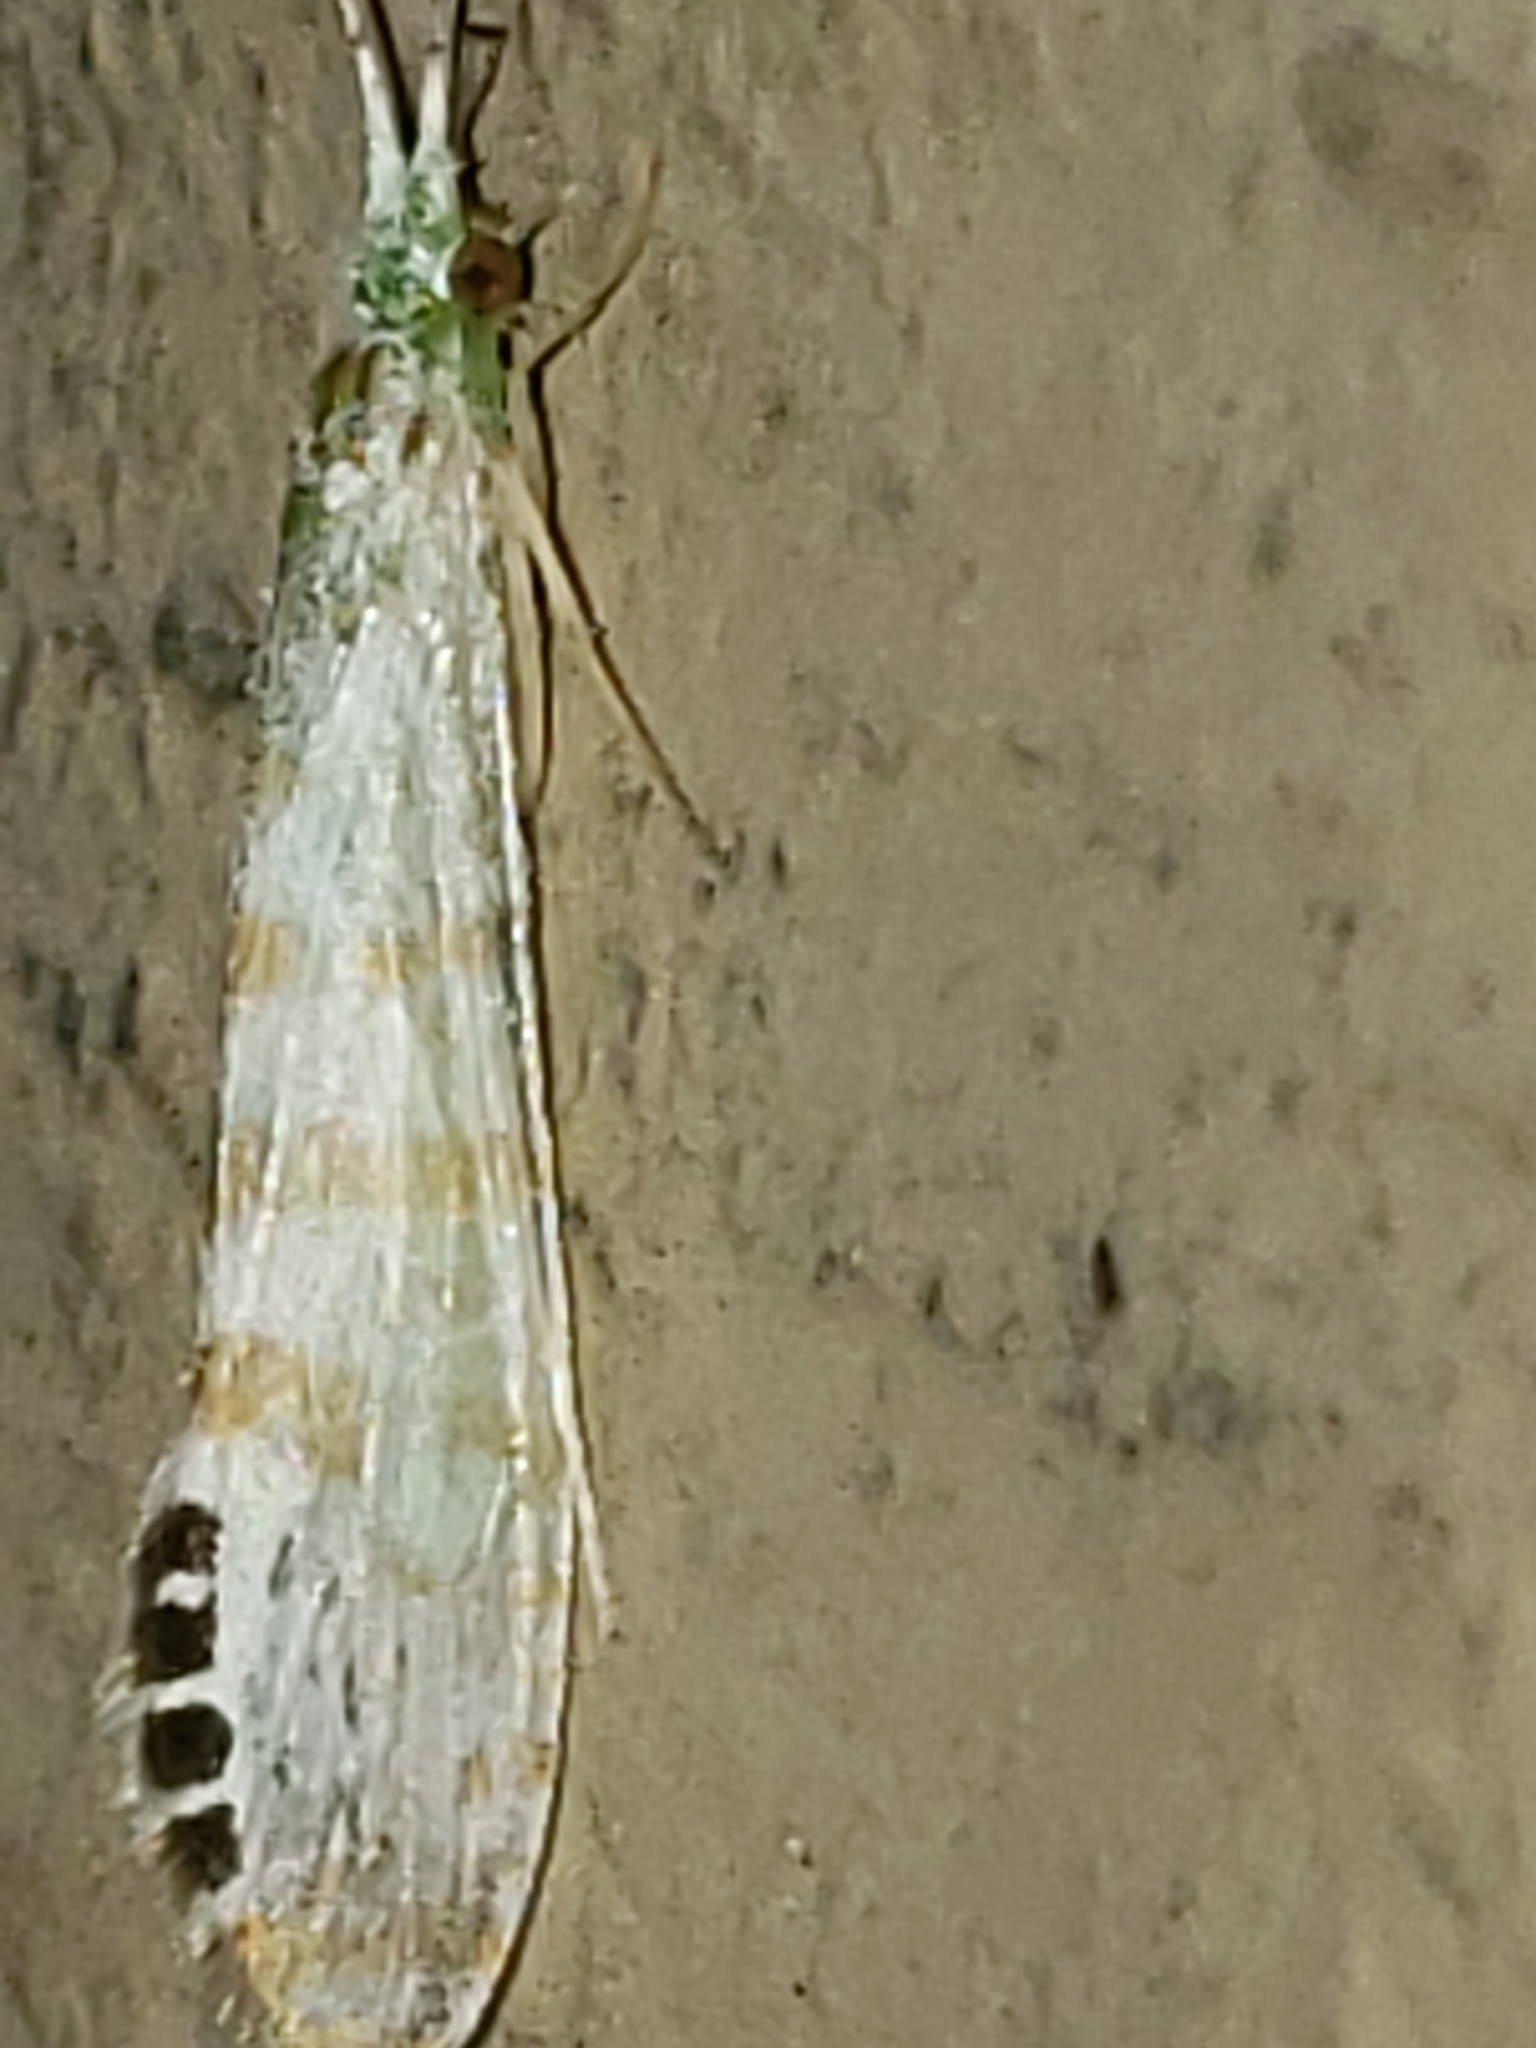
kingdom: Animalia
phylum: Arthropoda
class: Insecta
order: Trichoptera
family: Leptoceridae
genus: Nectopsyche
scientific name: Nectopsyche exquisita
